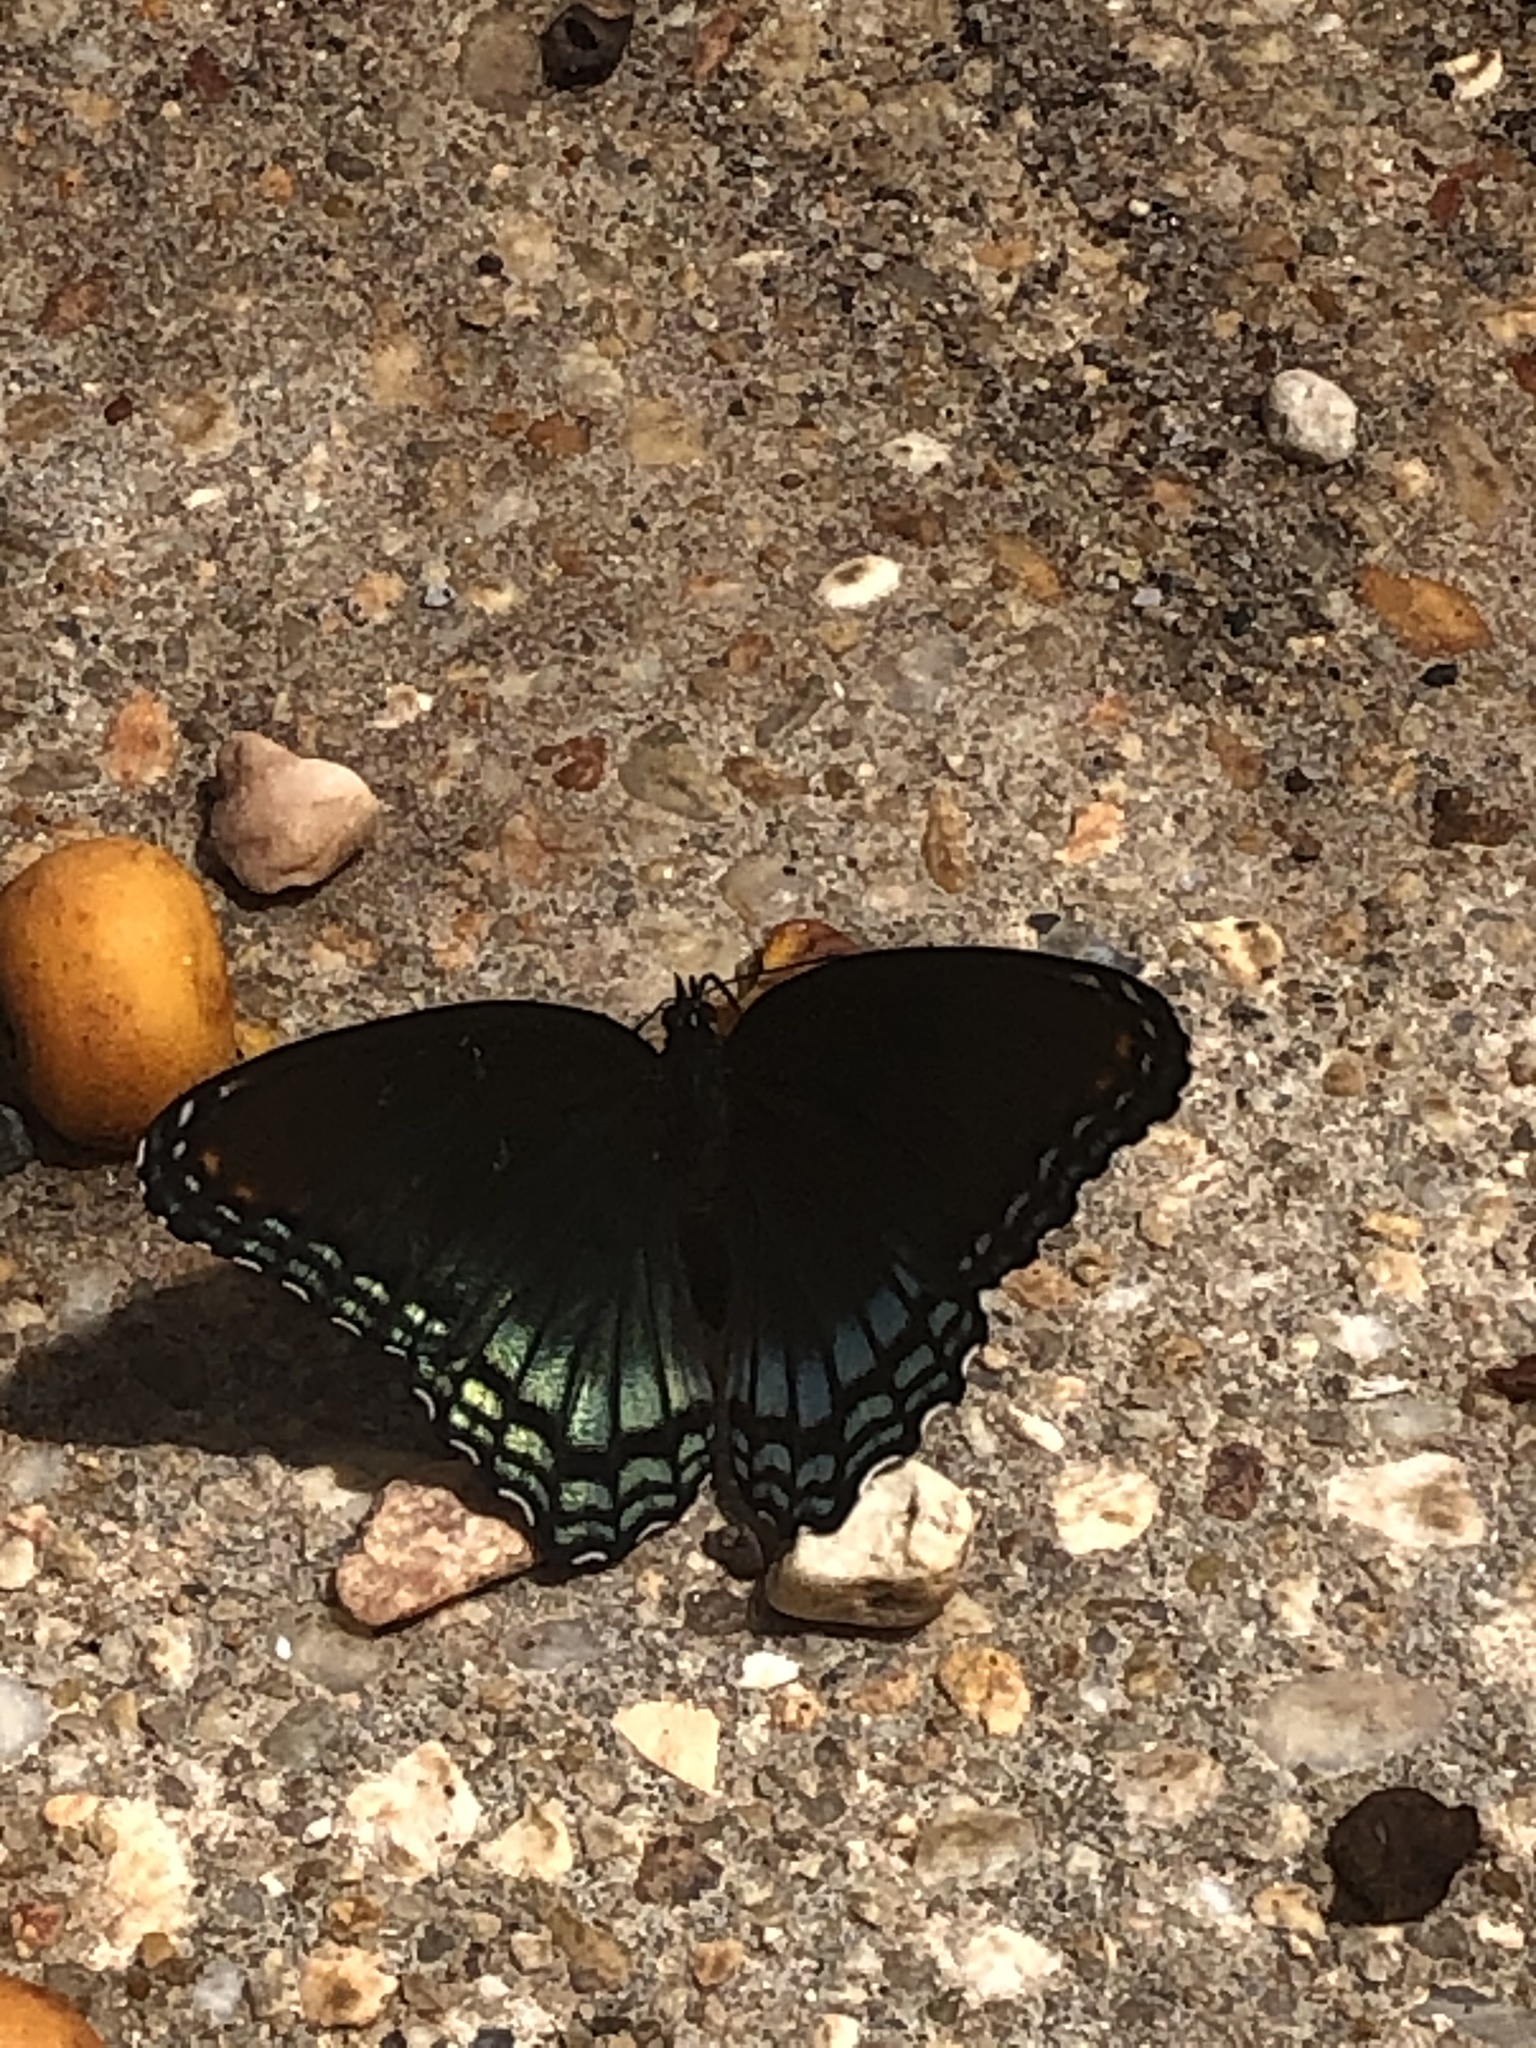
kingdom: Animalia
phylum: Arthropoda
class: Insecta
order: Lepidoptera
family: Nymphalidae
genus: Limenitis
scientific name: Limenitis astyanax
